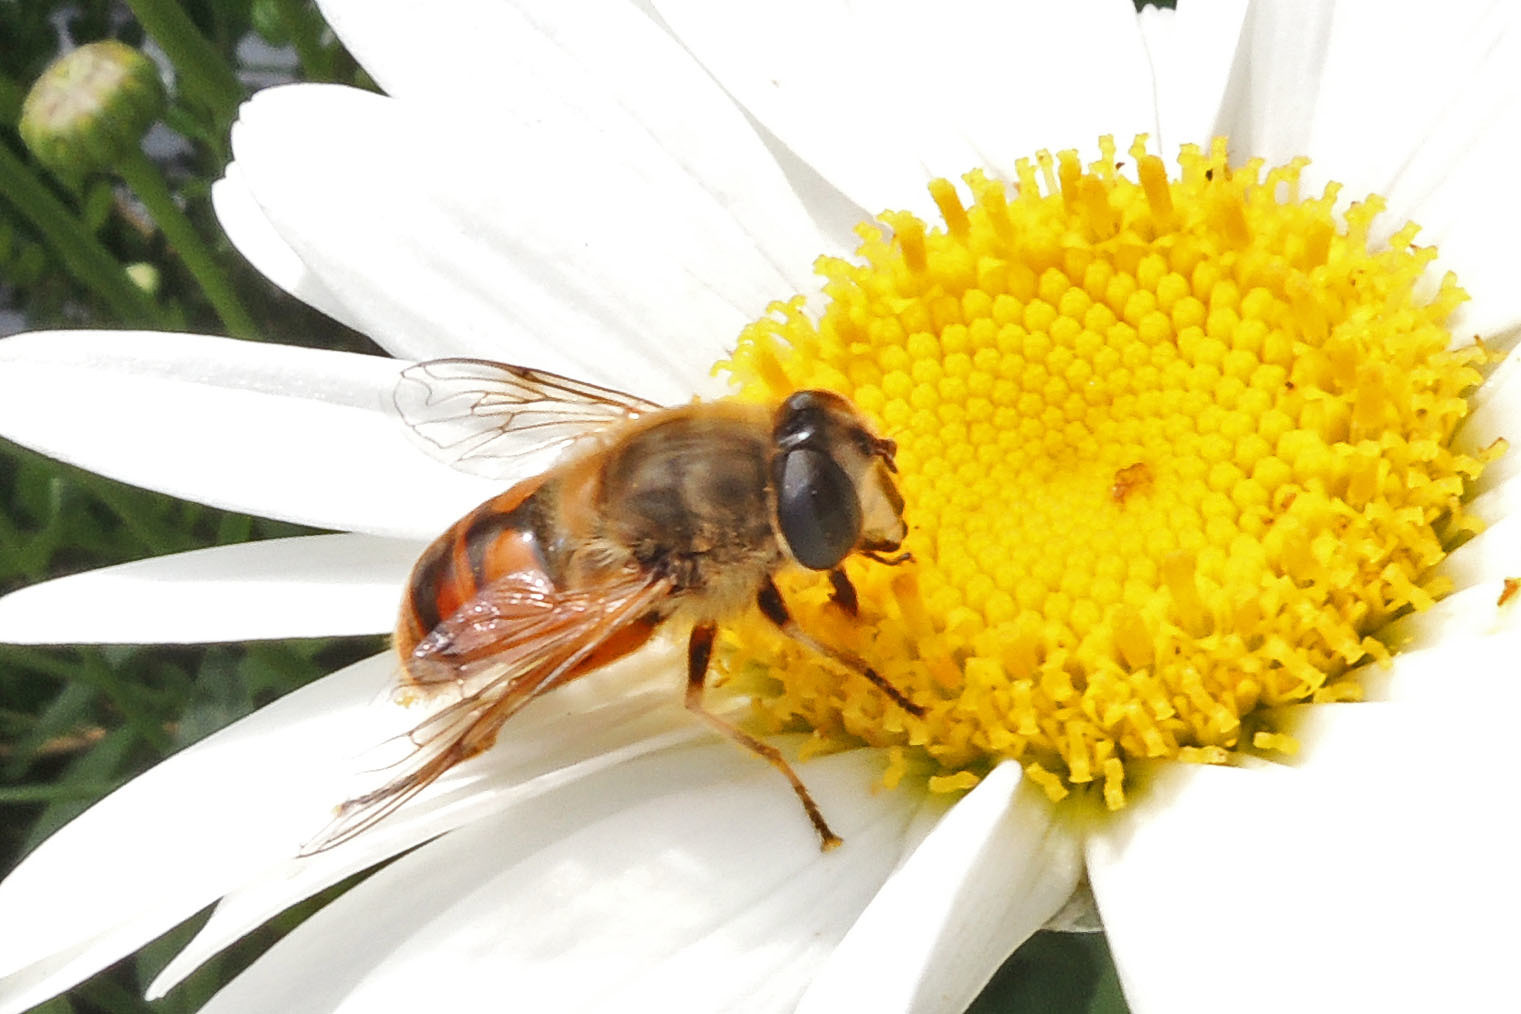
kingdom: Animalia
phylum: Arthropoda
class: Insecta
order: Diptera
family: Syrphidae
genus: Eristalis
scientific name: Eristalis tenax
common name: Drone fly
